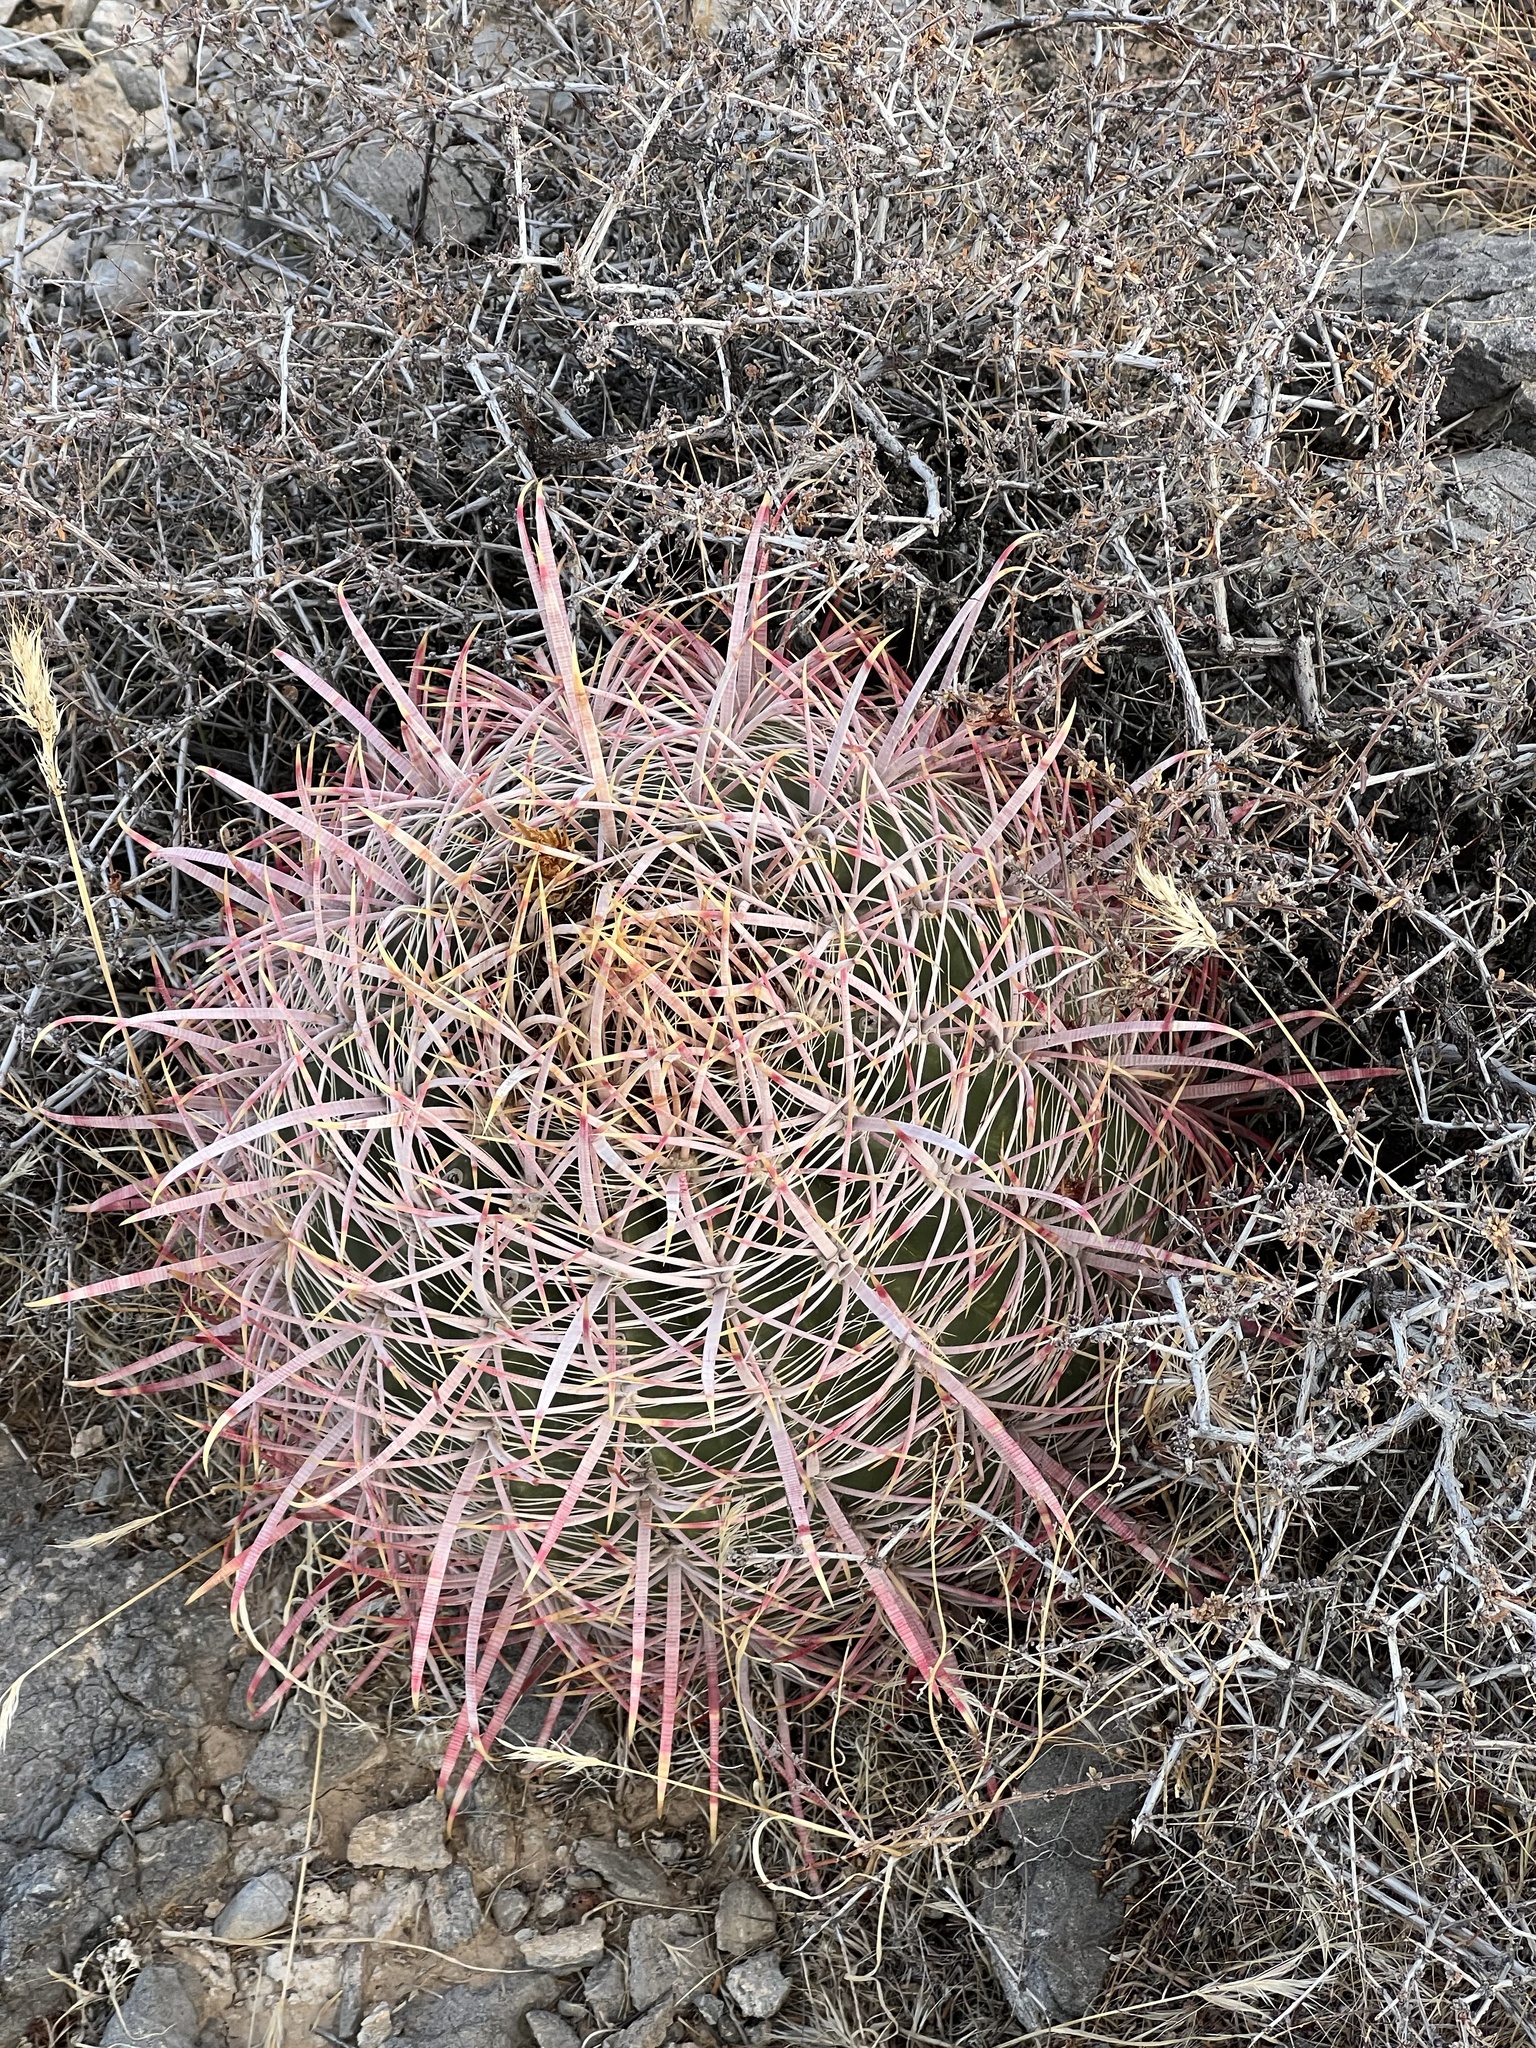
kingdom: Plantae
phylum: Tracheophyta
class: Magnoliopsida
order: Caryophyllales
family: Cactaceae
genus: Ferocactus
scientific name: Ferocactus cylindraceus
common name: California barrel cactus
